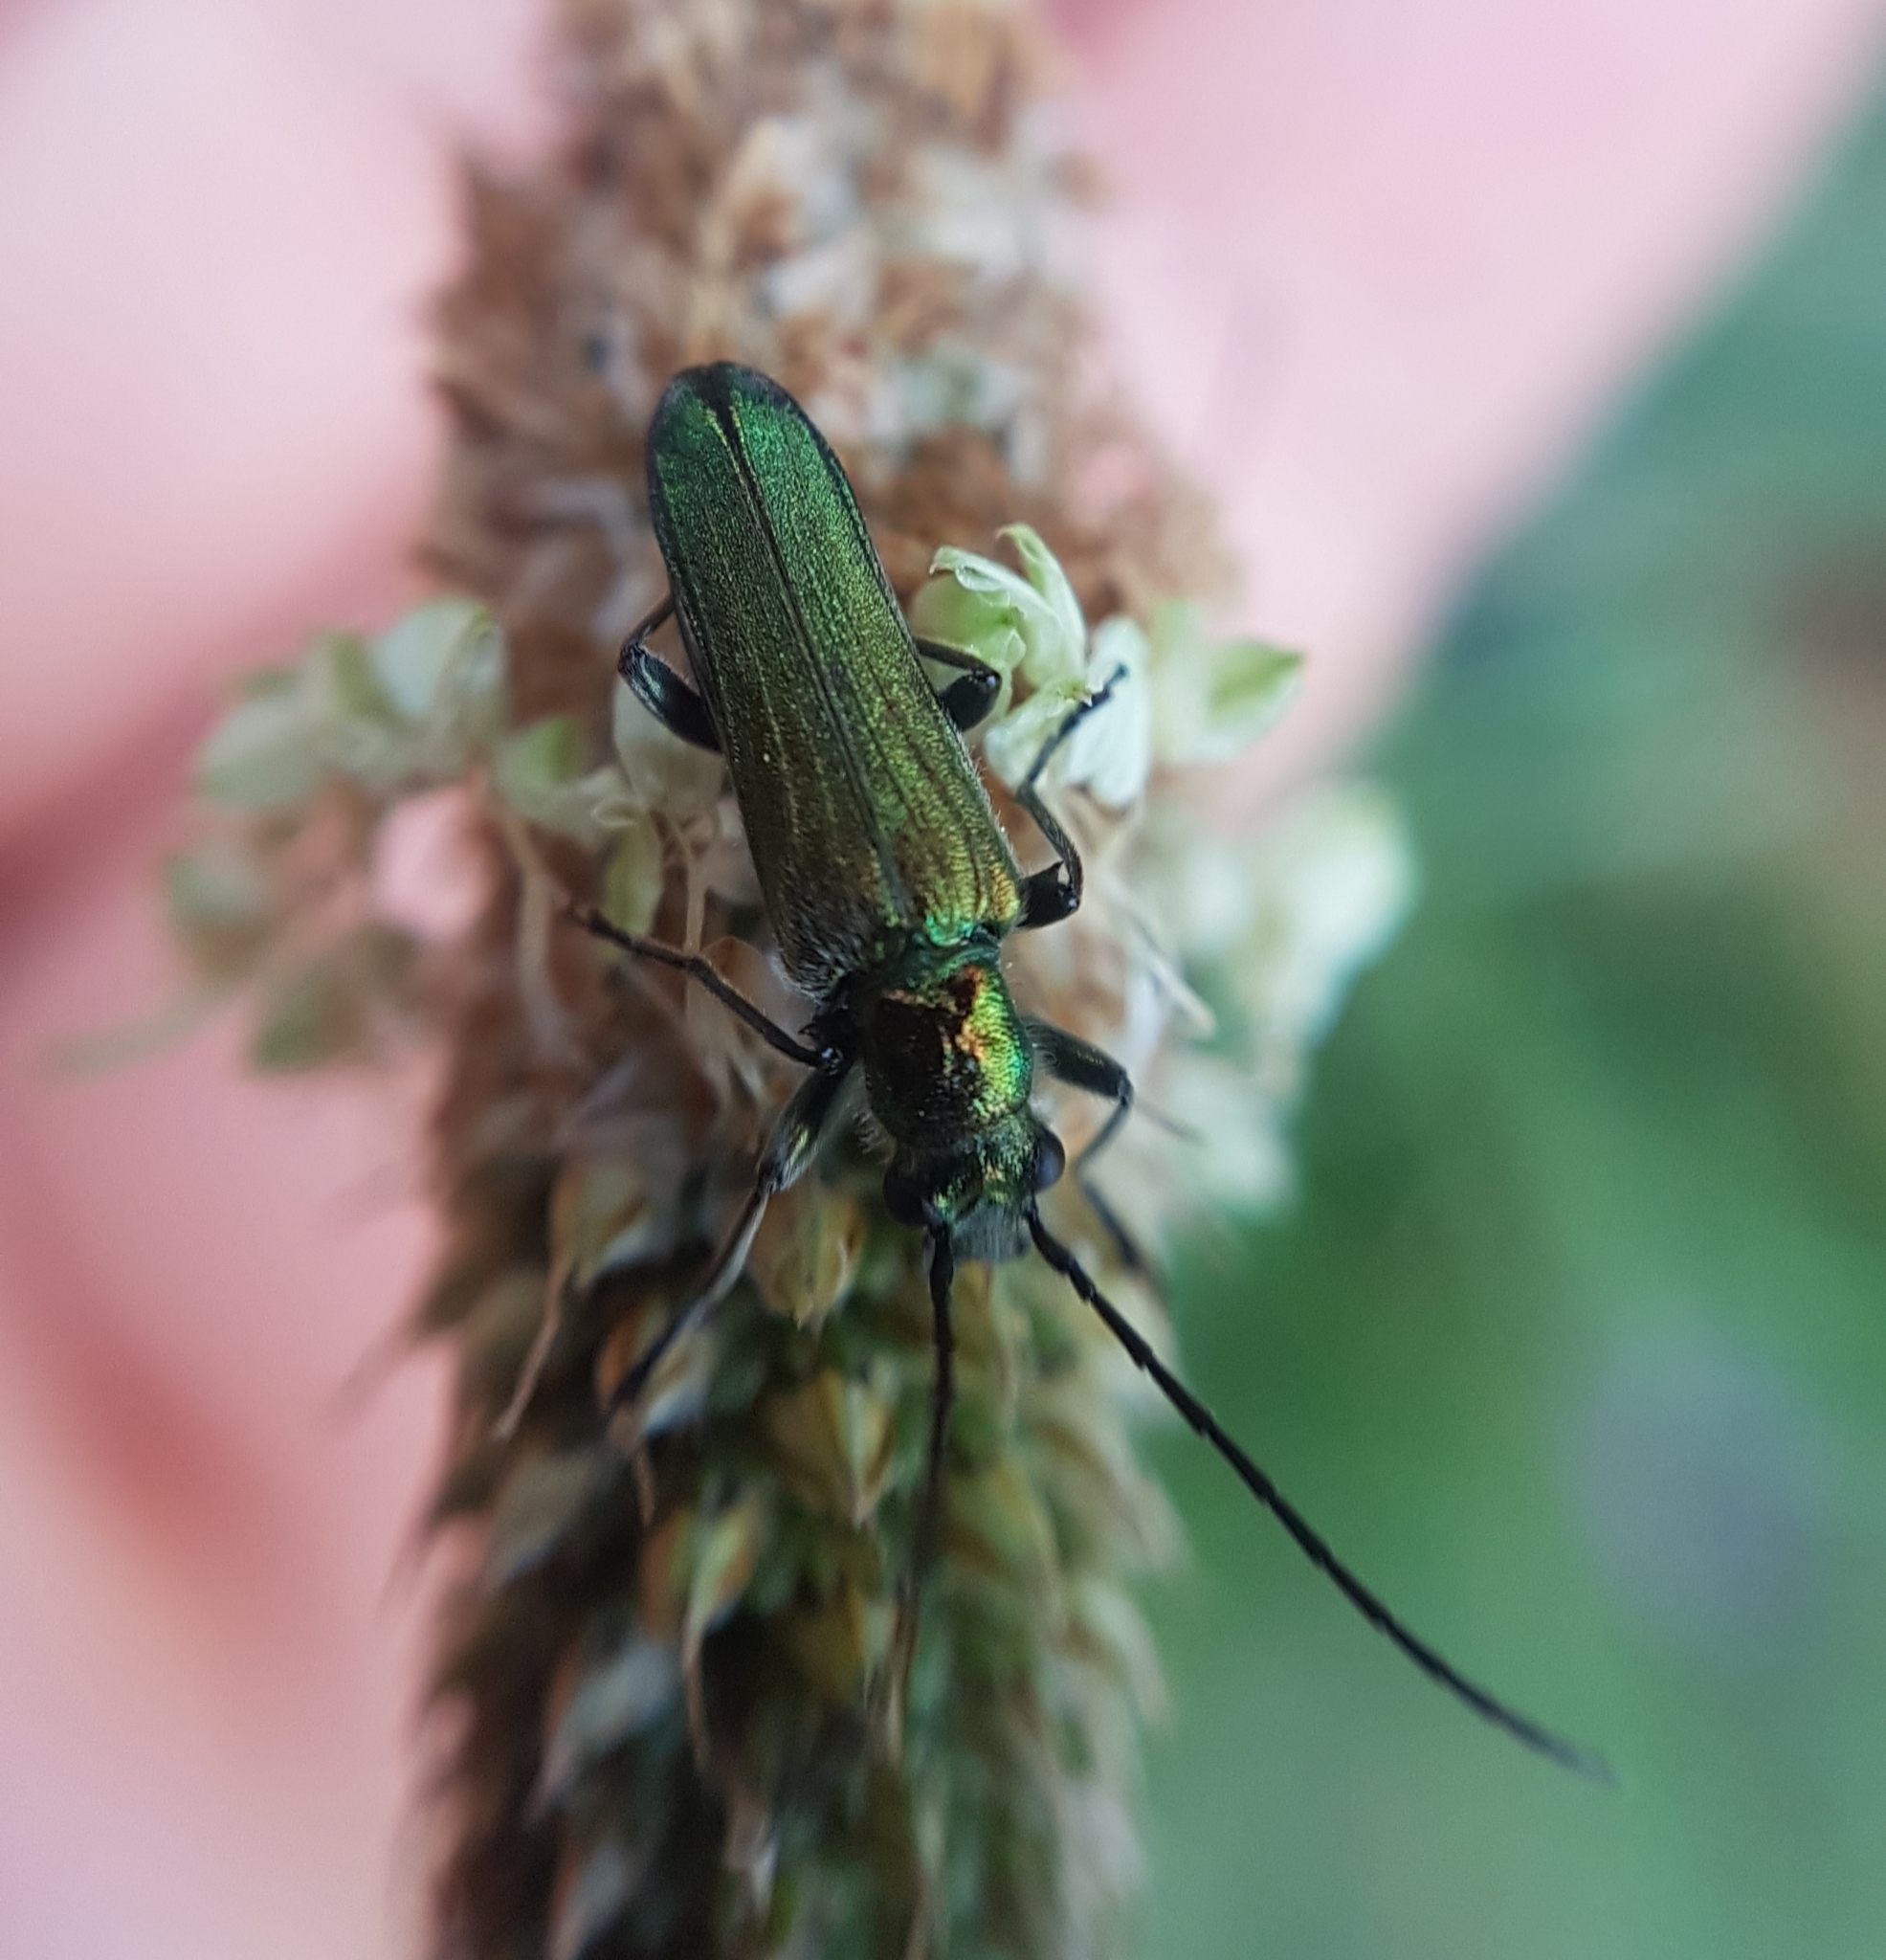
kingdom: Animalia
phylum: Arthropoda
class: Insecta
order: Coleoptera
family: Oedemeridae
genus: Anogcodes
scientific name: Anogcodes seladonius
